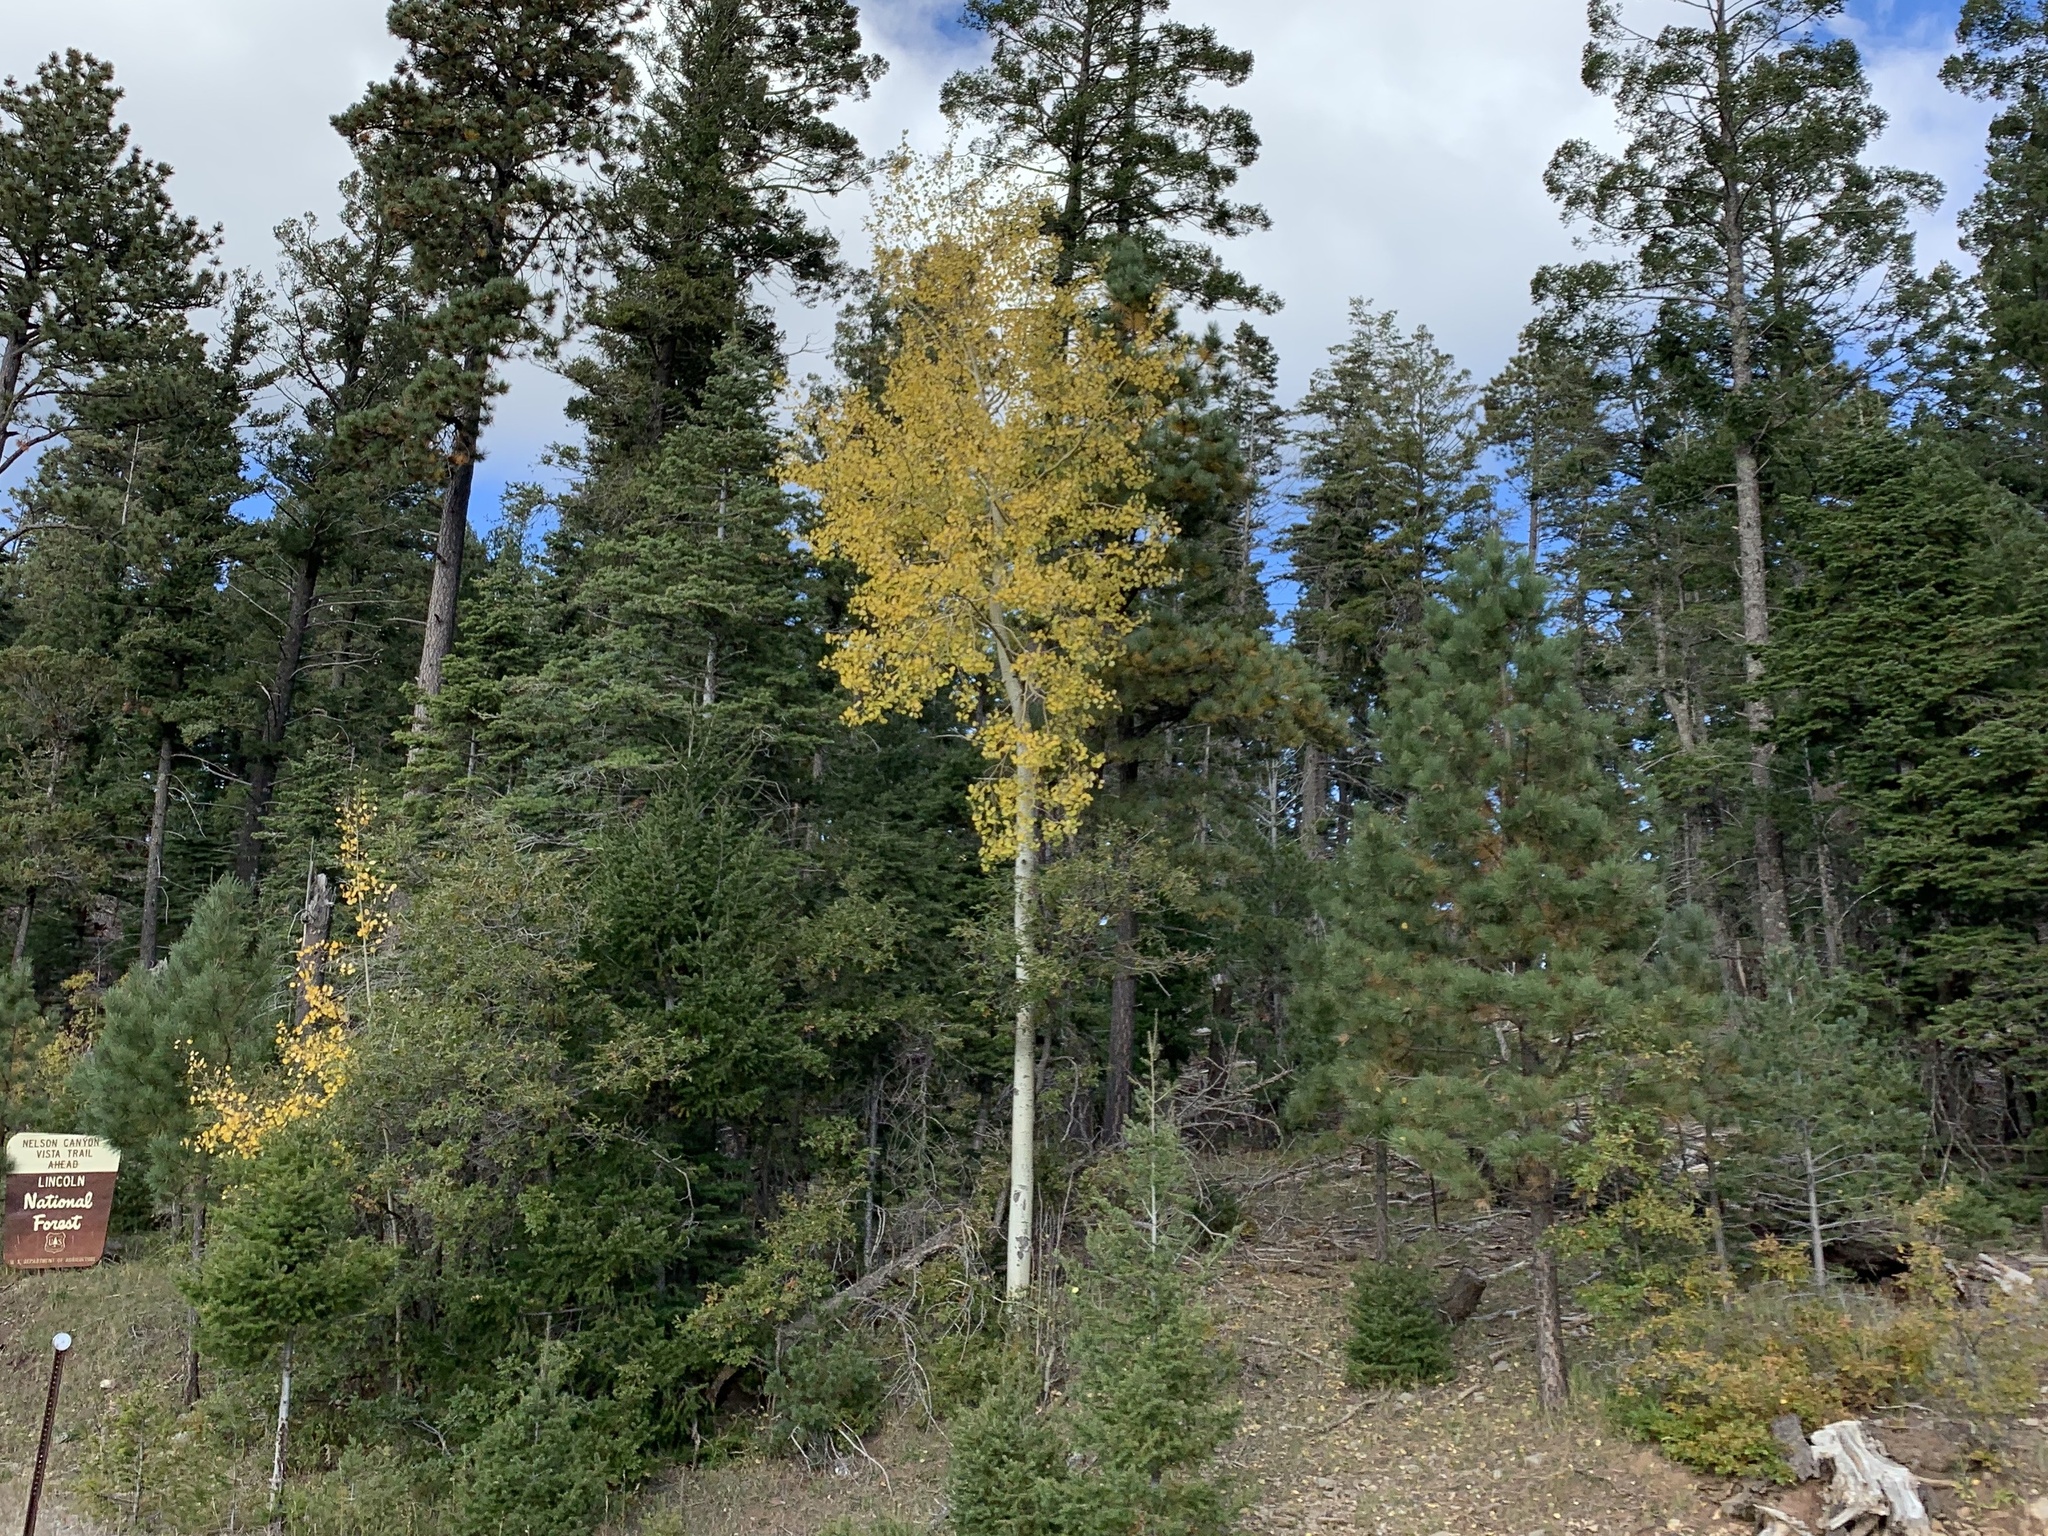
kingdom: Plantae
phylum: Tracheophyta
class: Magnoliopsida
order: Malpighiales
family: Salicaceae
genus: Populus
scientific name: Populus tremuloides
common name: Quaking aspen
